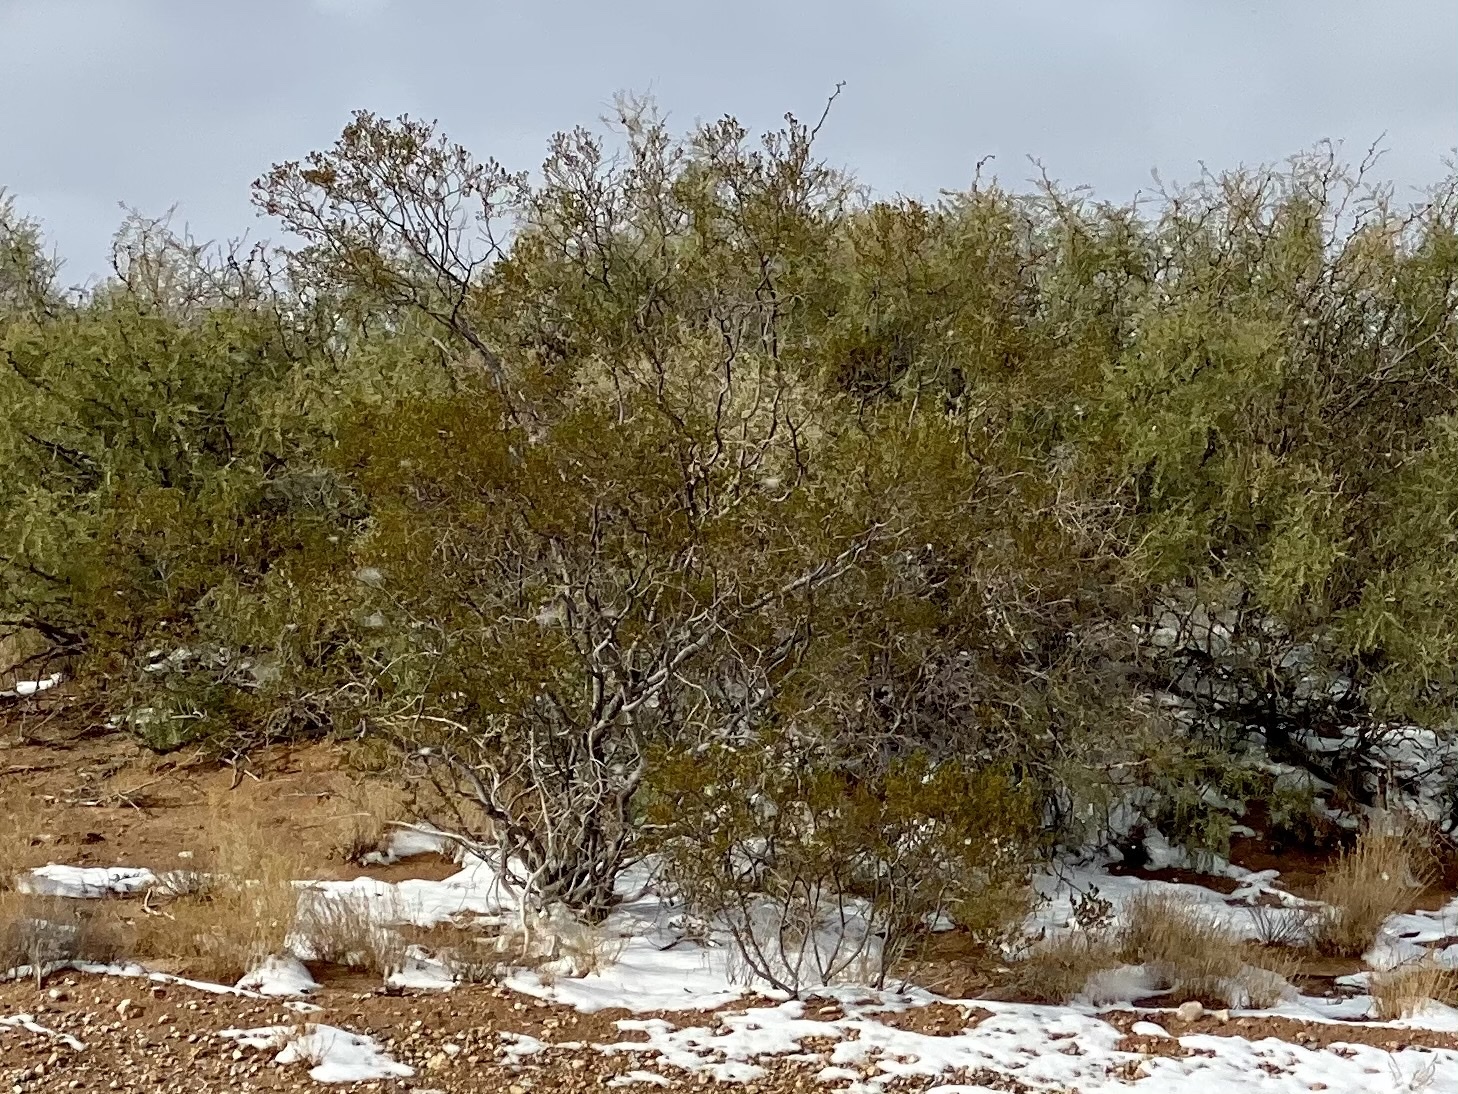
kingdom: Plantae
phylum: Tracheophyta
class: Magnoliopsida
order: Zygophyllales
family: Zygophyllaceae
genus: Larrea
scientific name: Larrea tridentata
